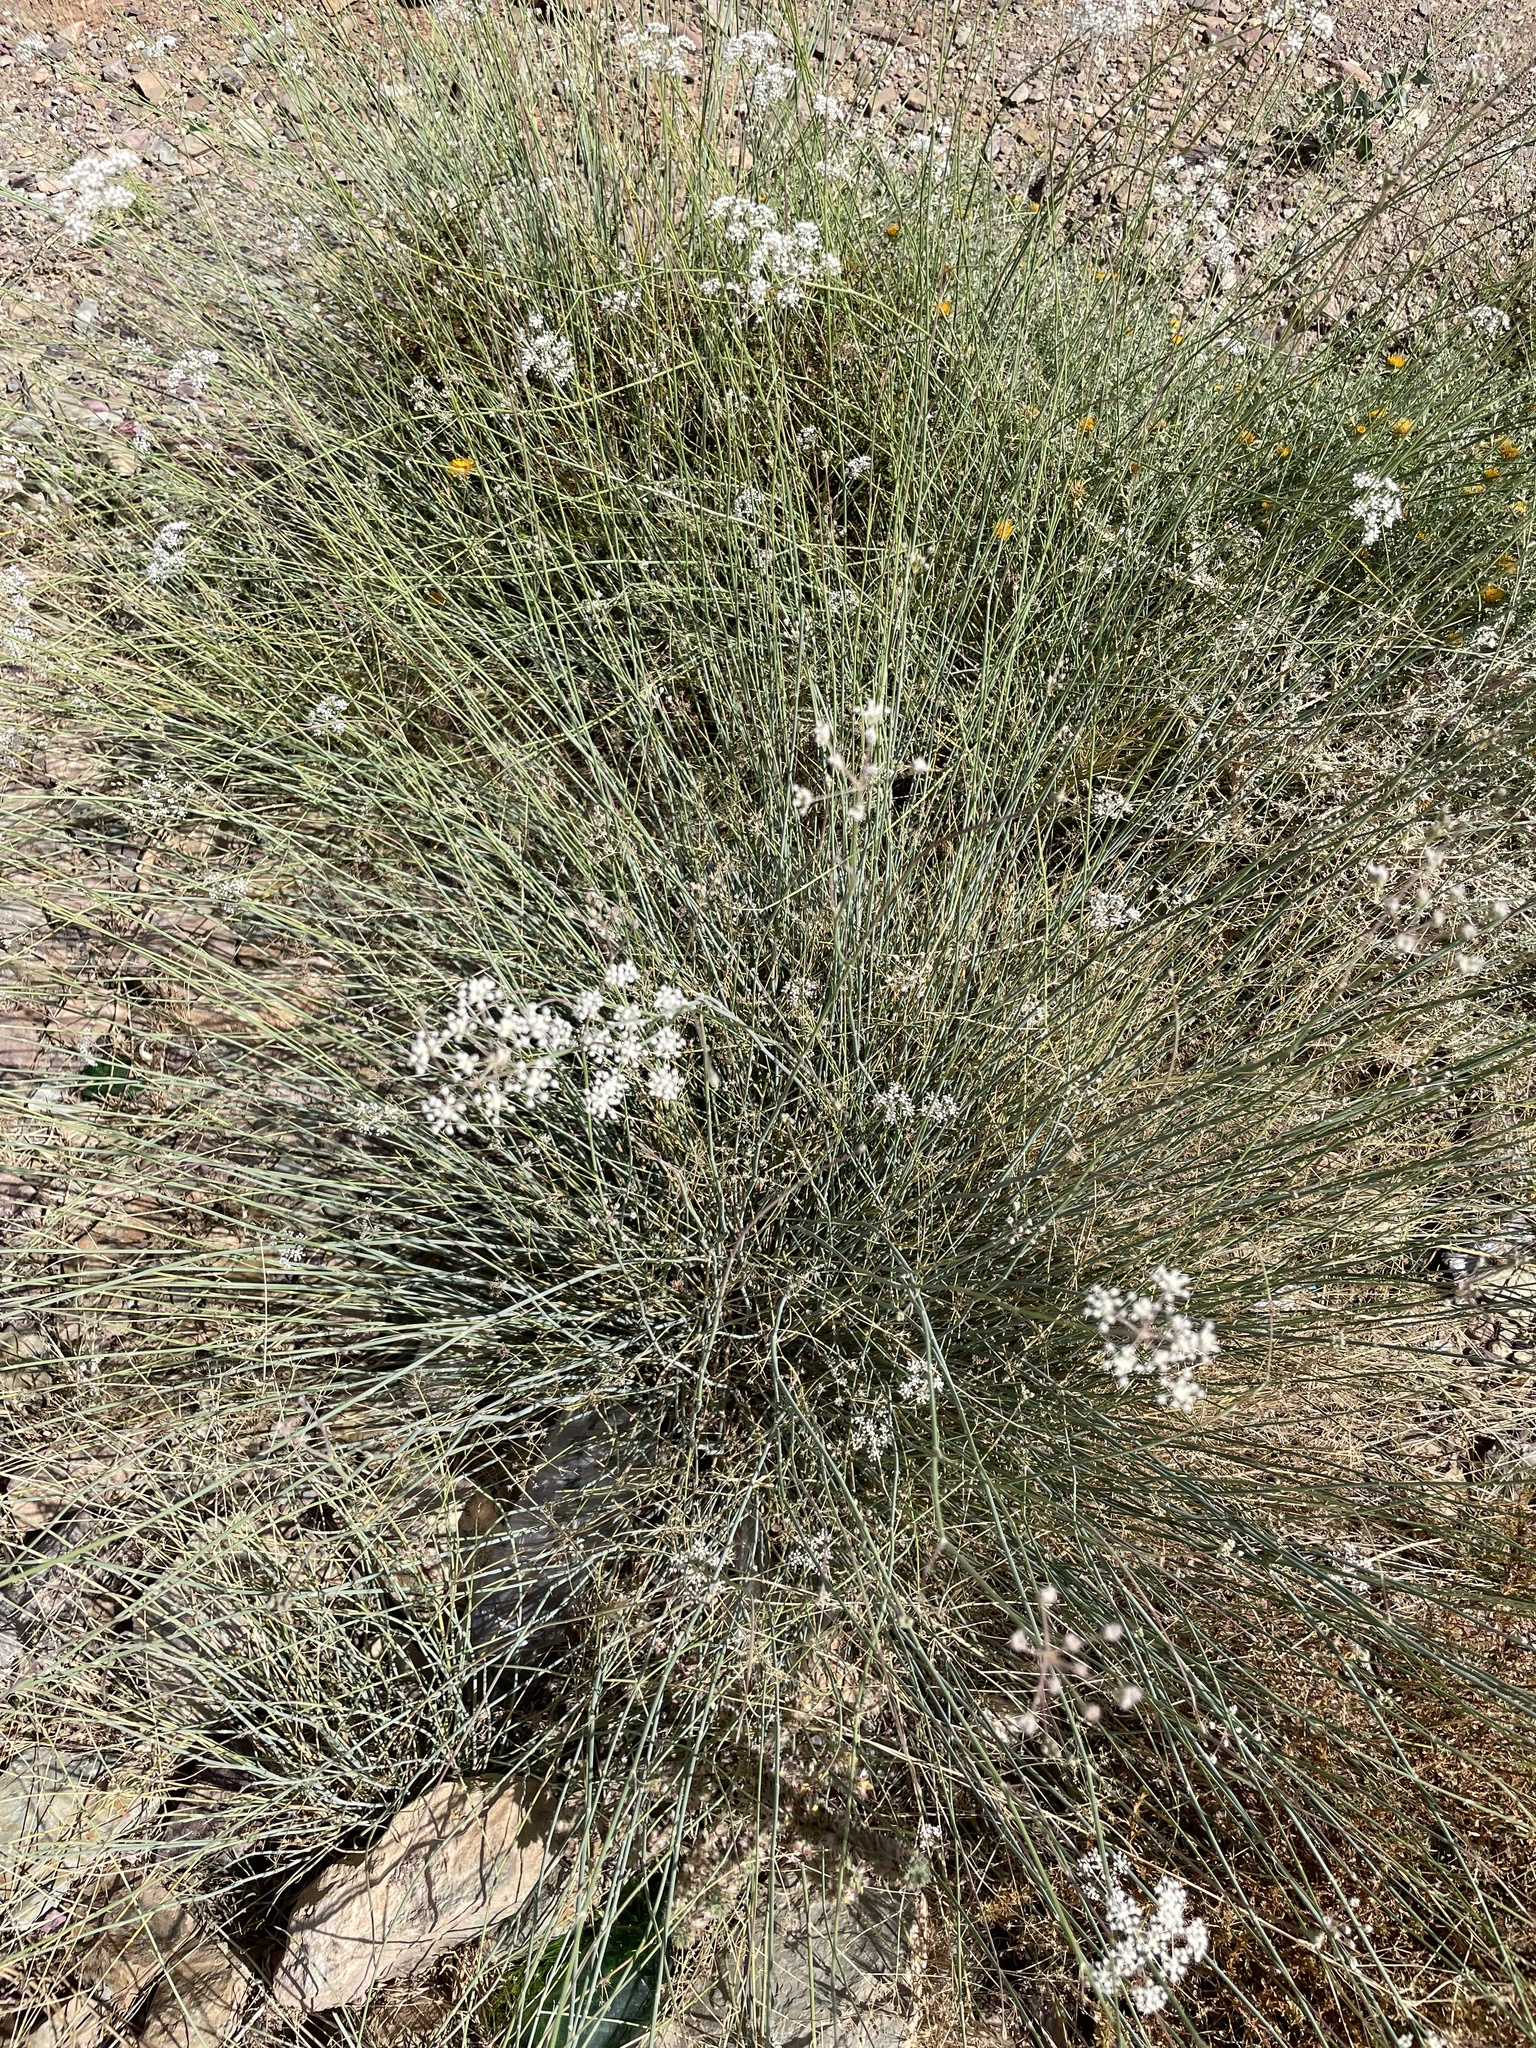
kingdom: Plantae
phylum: Tracheophyta
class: Magnoliopsida
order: Apiales
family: Apiaceae
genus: Deverra
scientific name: Deverra scoparia
